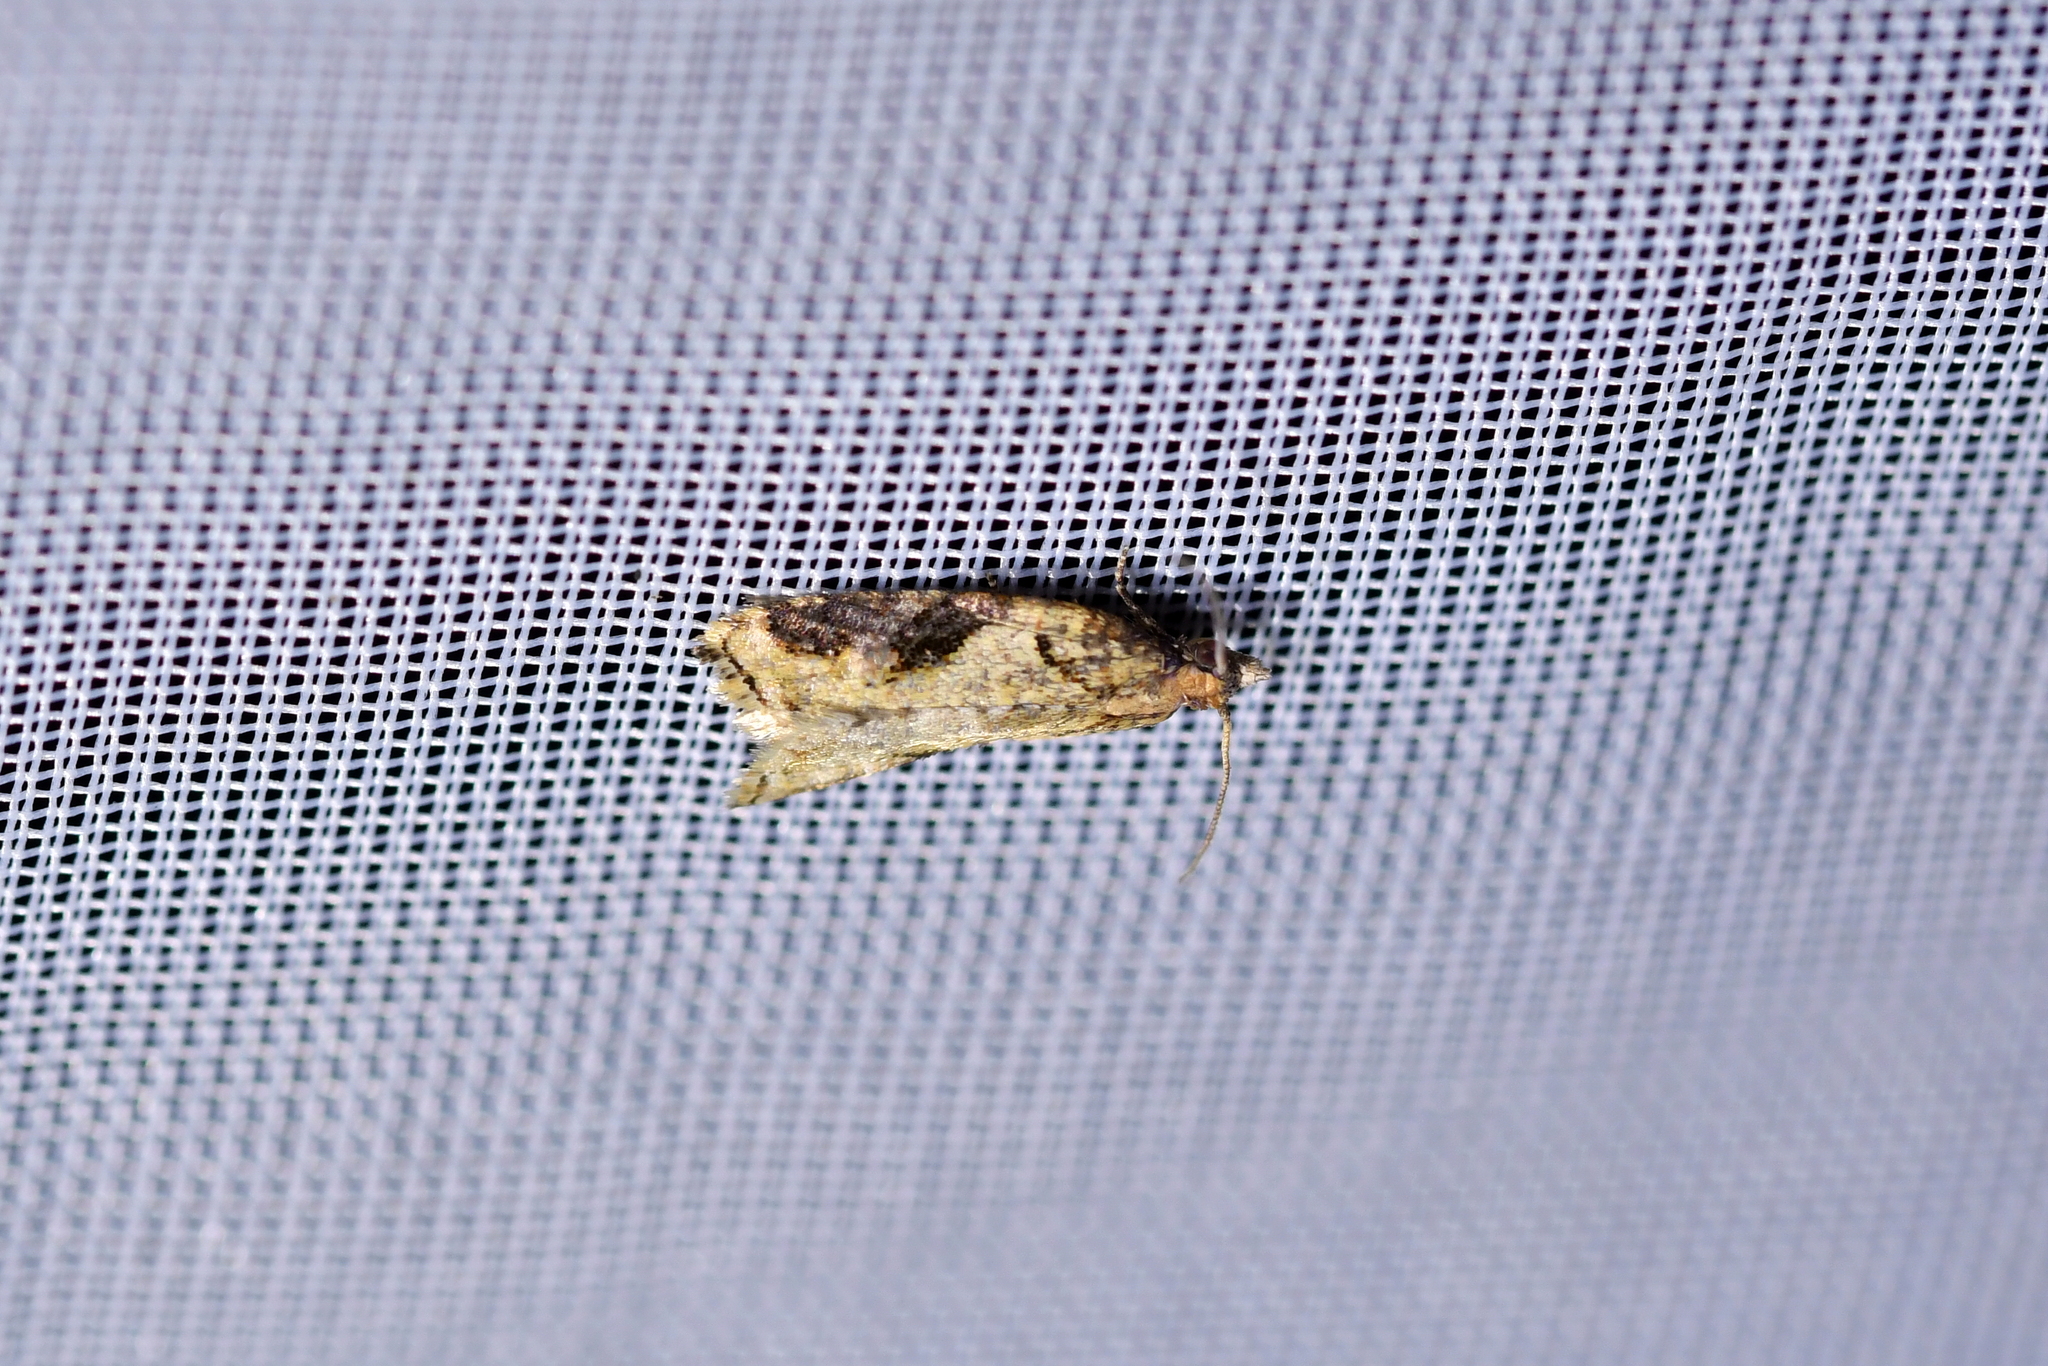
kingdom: Animalia
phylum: Arthropoda
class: Insecta
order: Lepidoptera
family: Tortricidae
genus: Capua
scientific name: Capua semiferana
